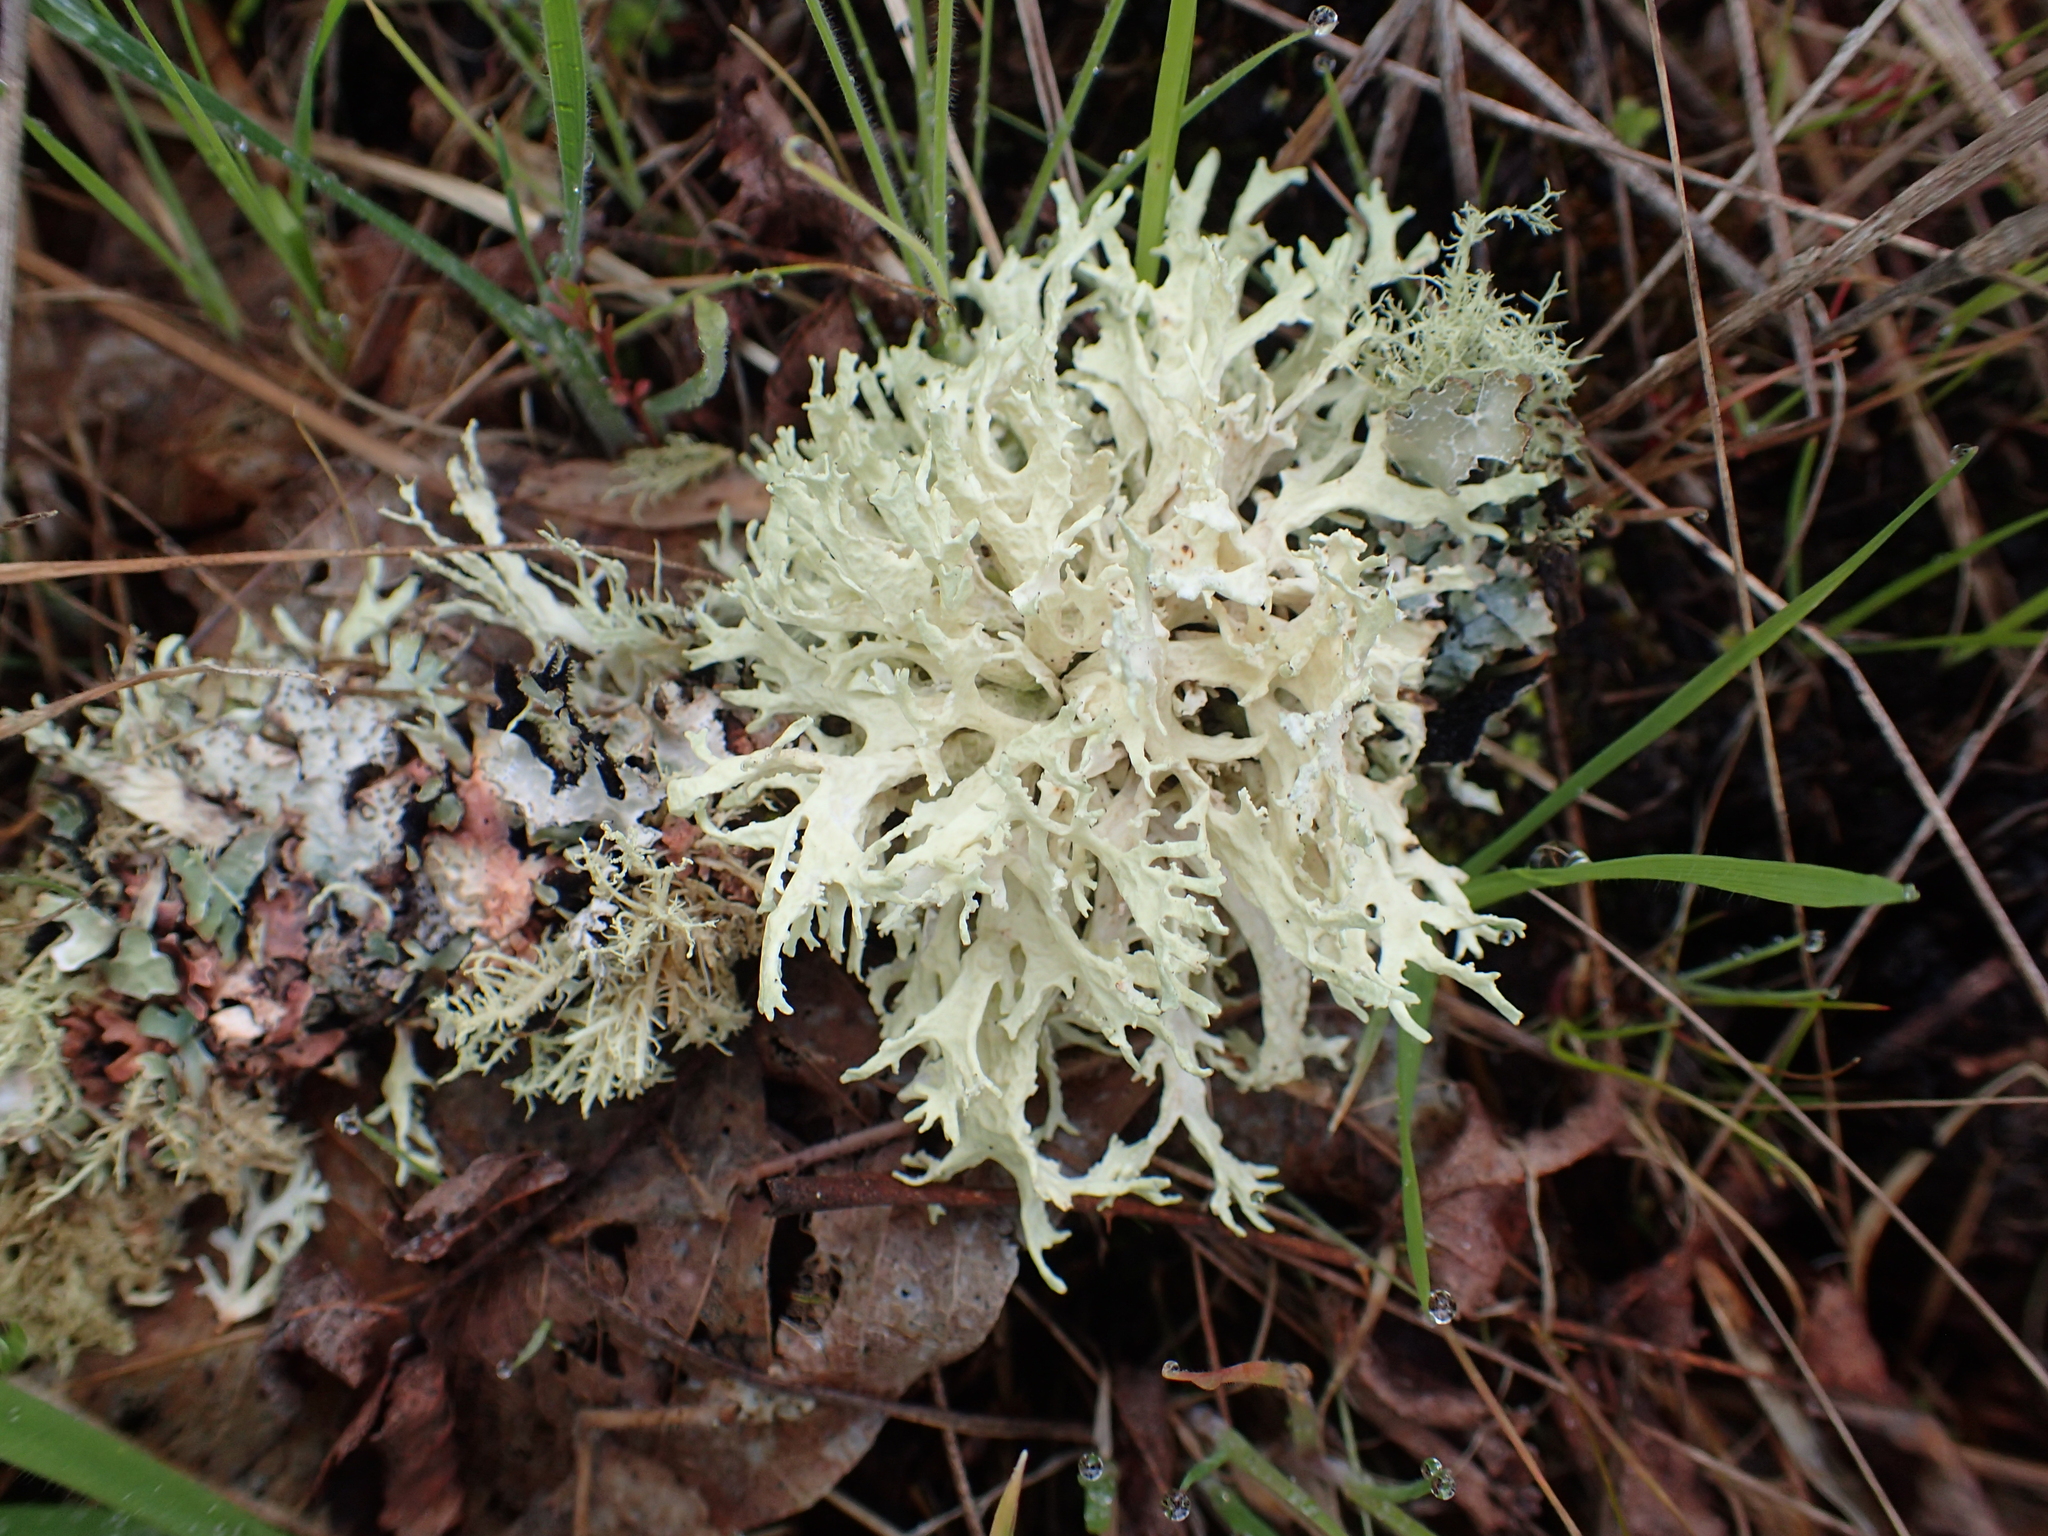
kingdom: Fungi
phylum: Ascomycota
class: Lecanoromycetes
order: Lecanorales
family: Parmeliaceae
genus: Evernia
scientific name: Evernia prunastri
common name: Oak moss
